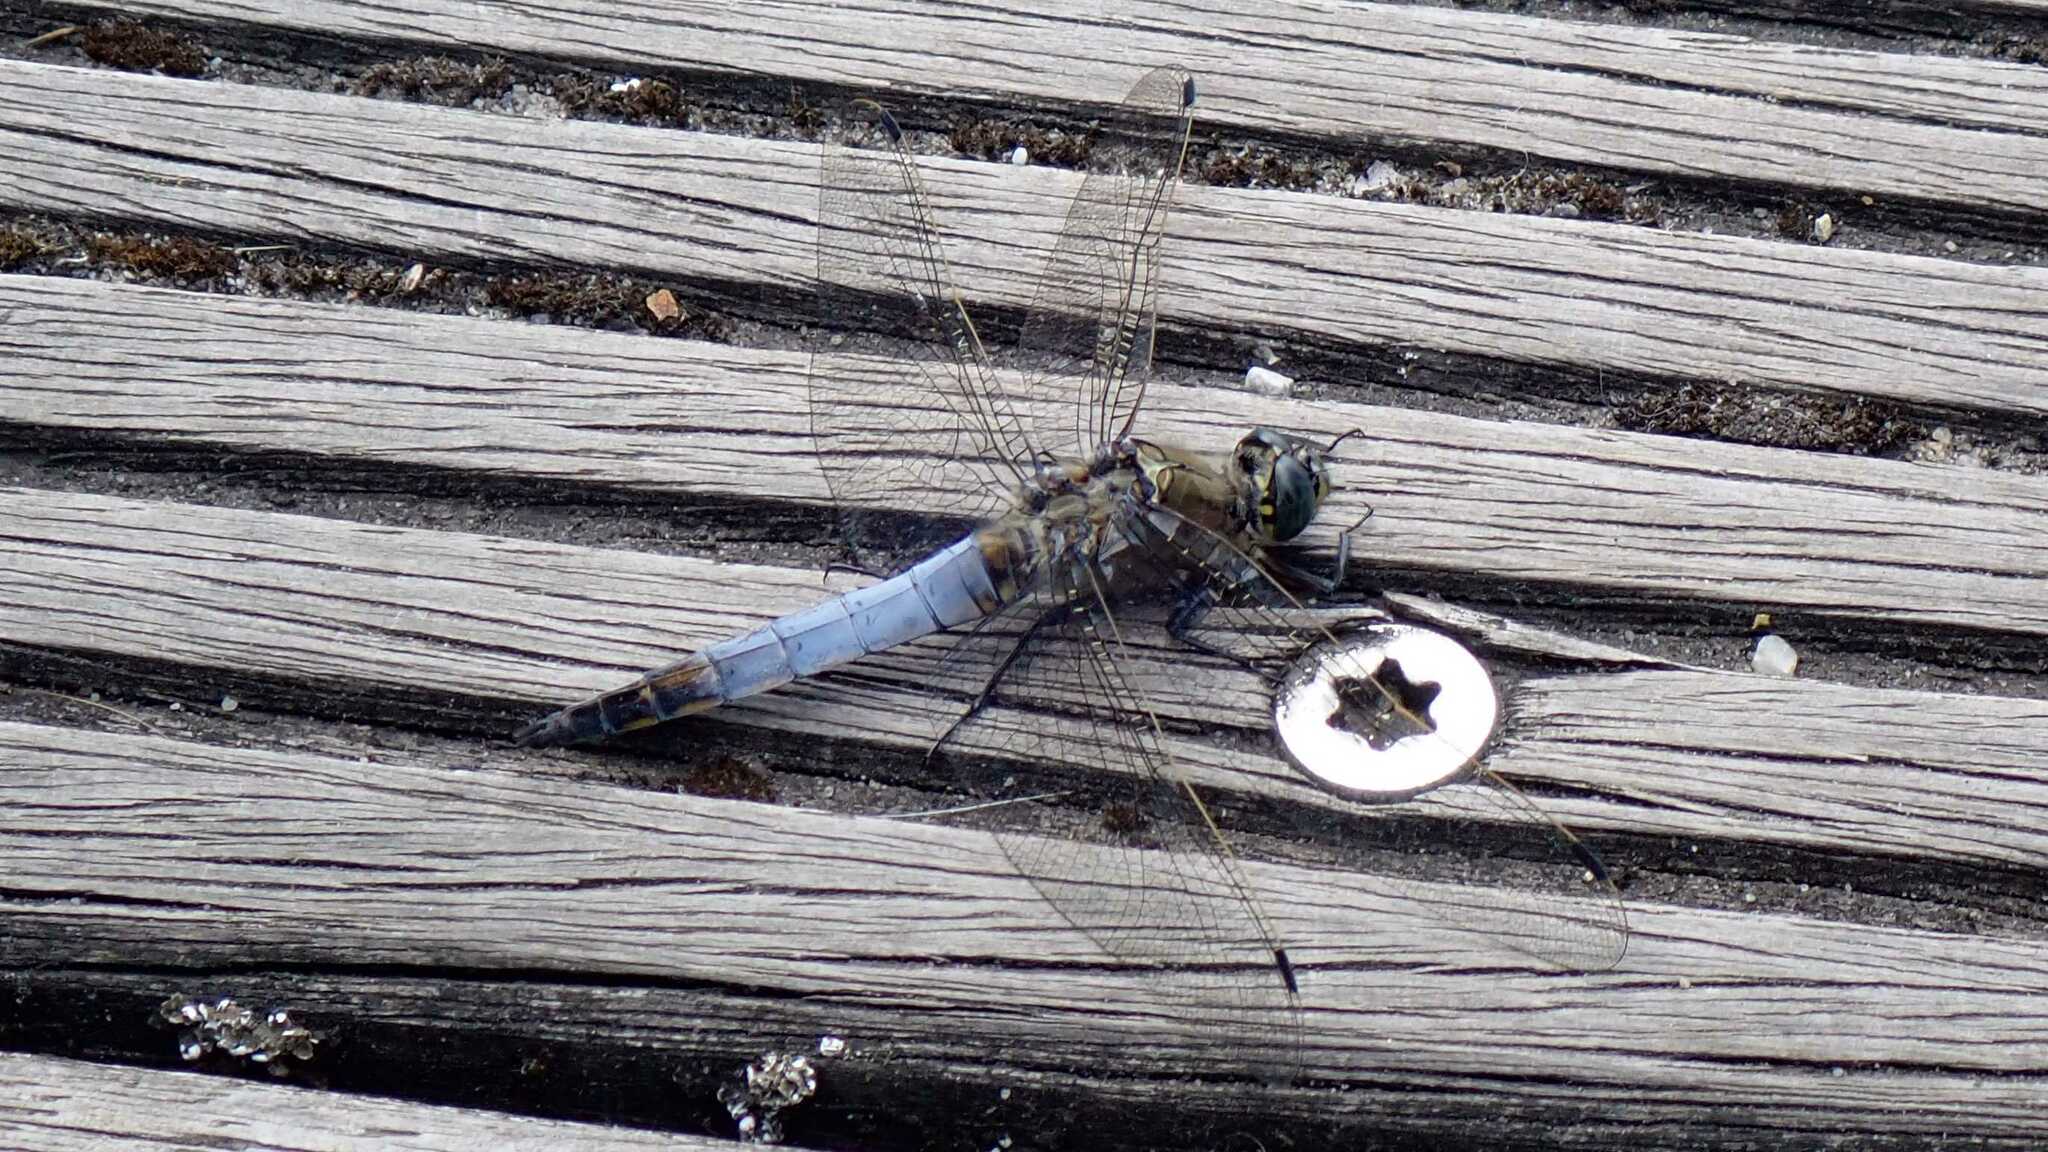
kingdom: Animalia
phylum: Arthropoda
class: Insecta
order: Odonata
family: Libellulidae
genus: Orthetrum
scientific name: Orthetrum cancellatum
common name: Black-tailed skimmer
